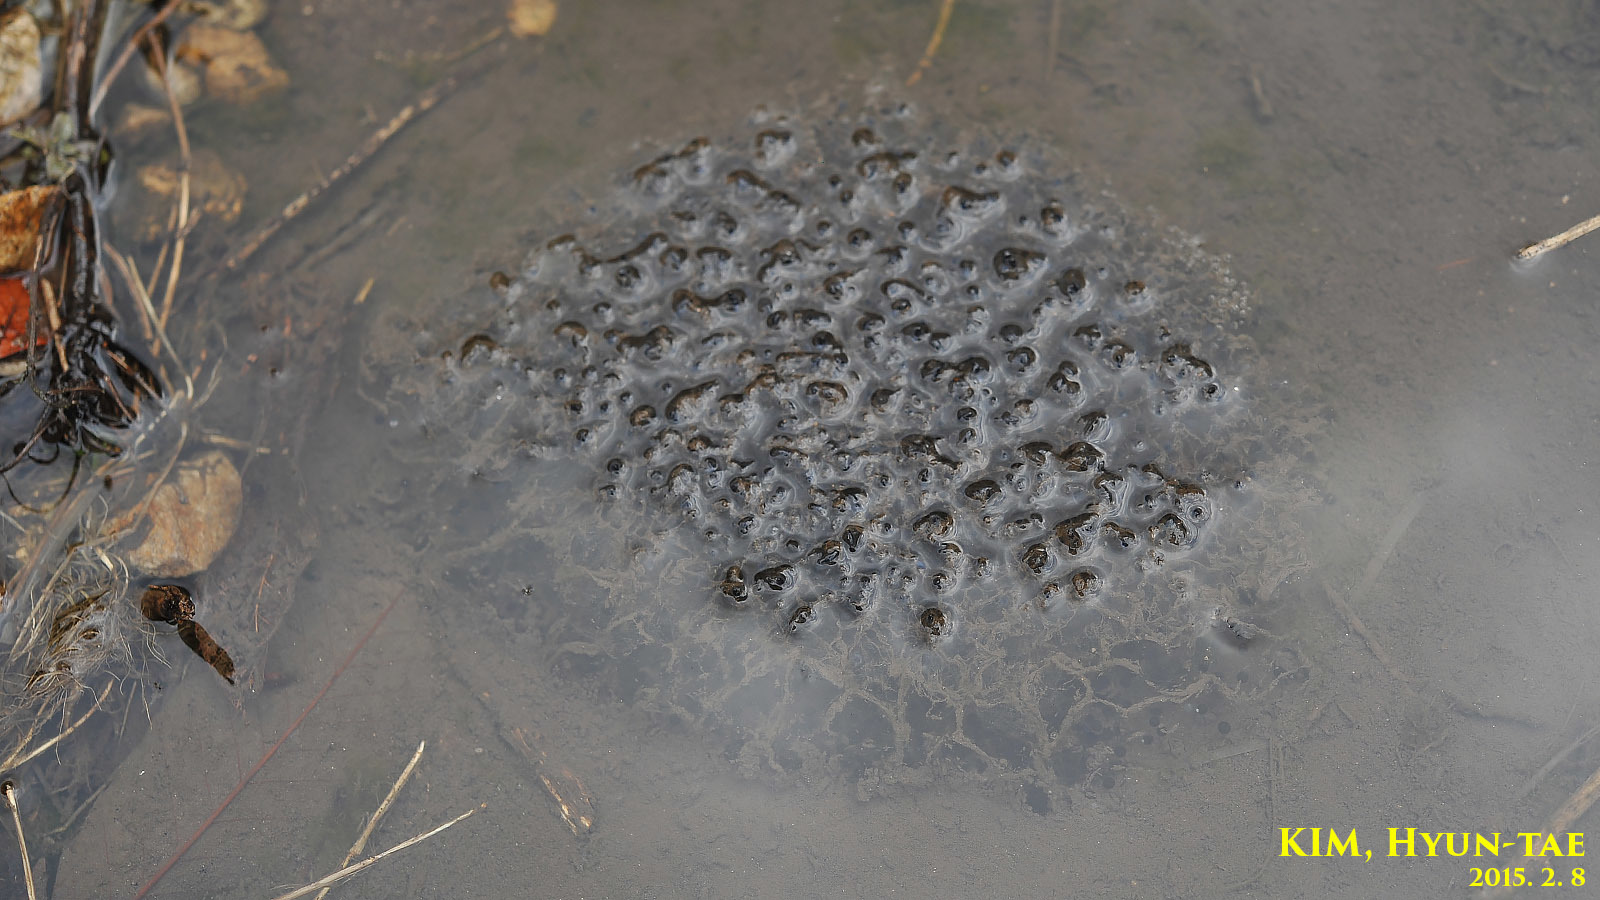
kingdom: Animalia
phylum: Chordata
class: Amphibia
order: Anura
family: Ranidae
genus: Rana
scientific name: Rana uenoi
